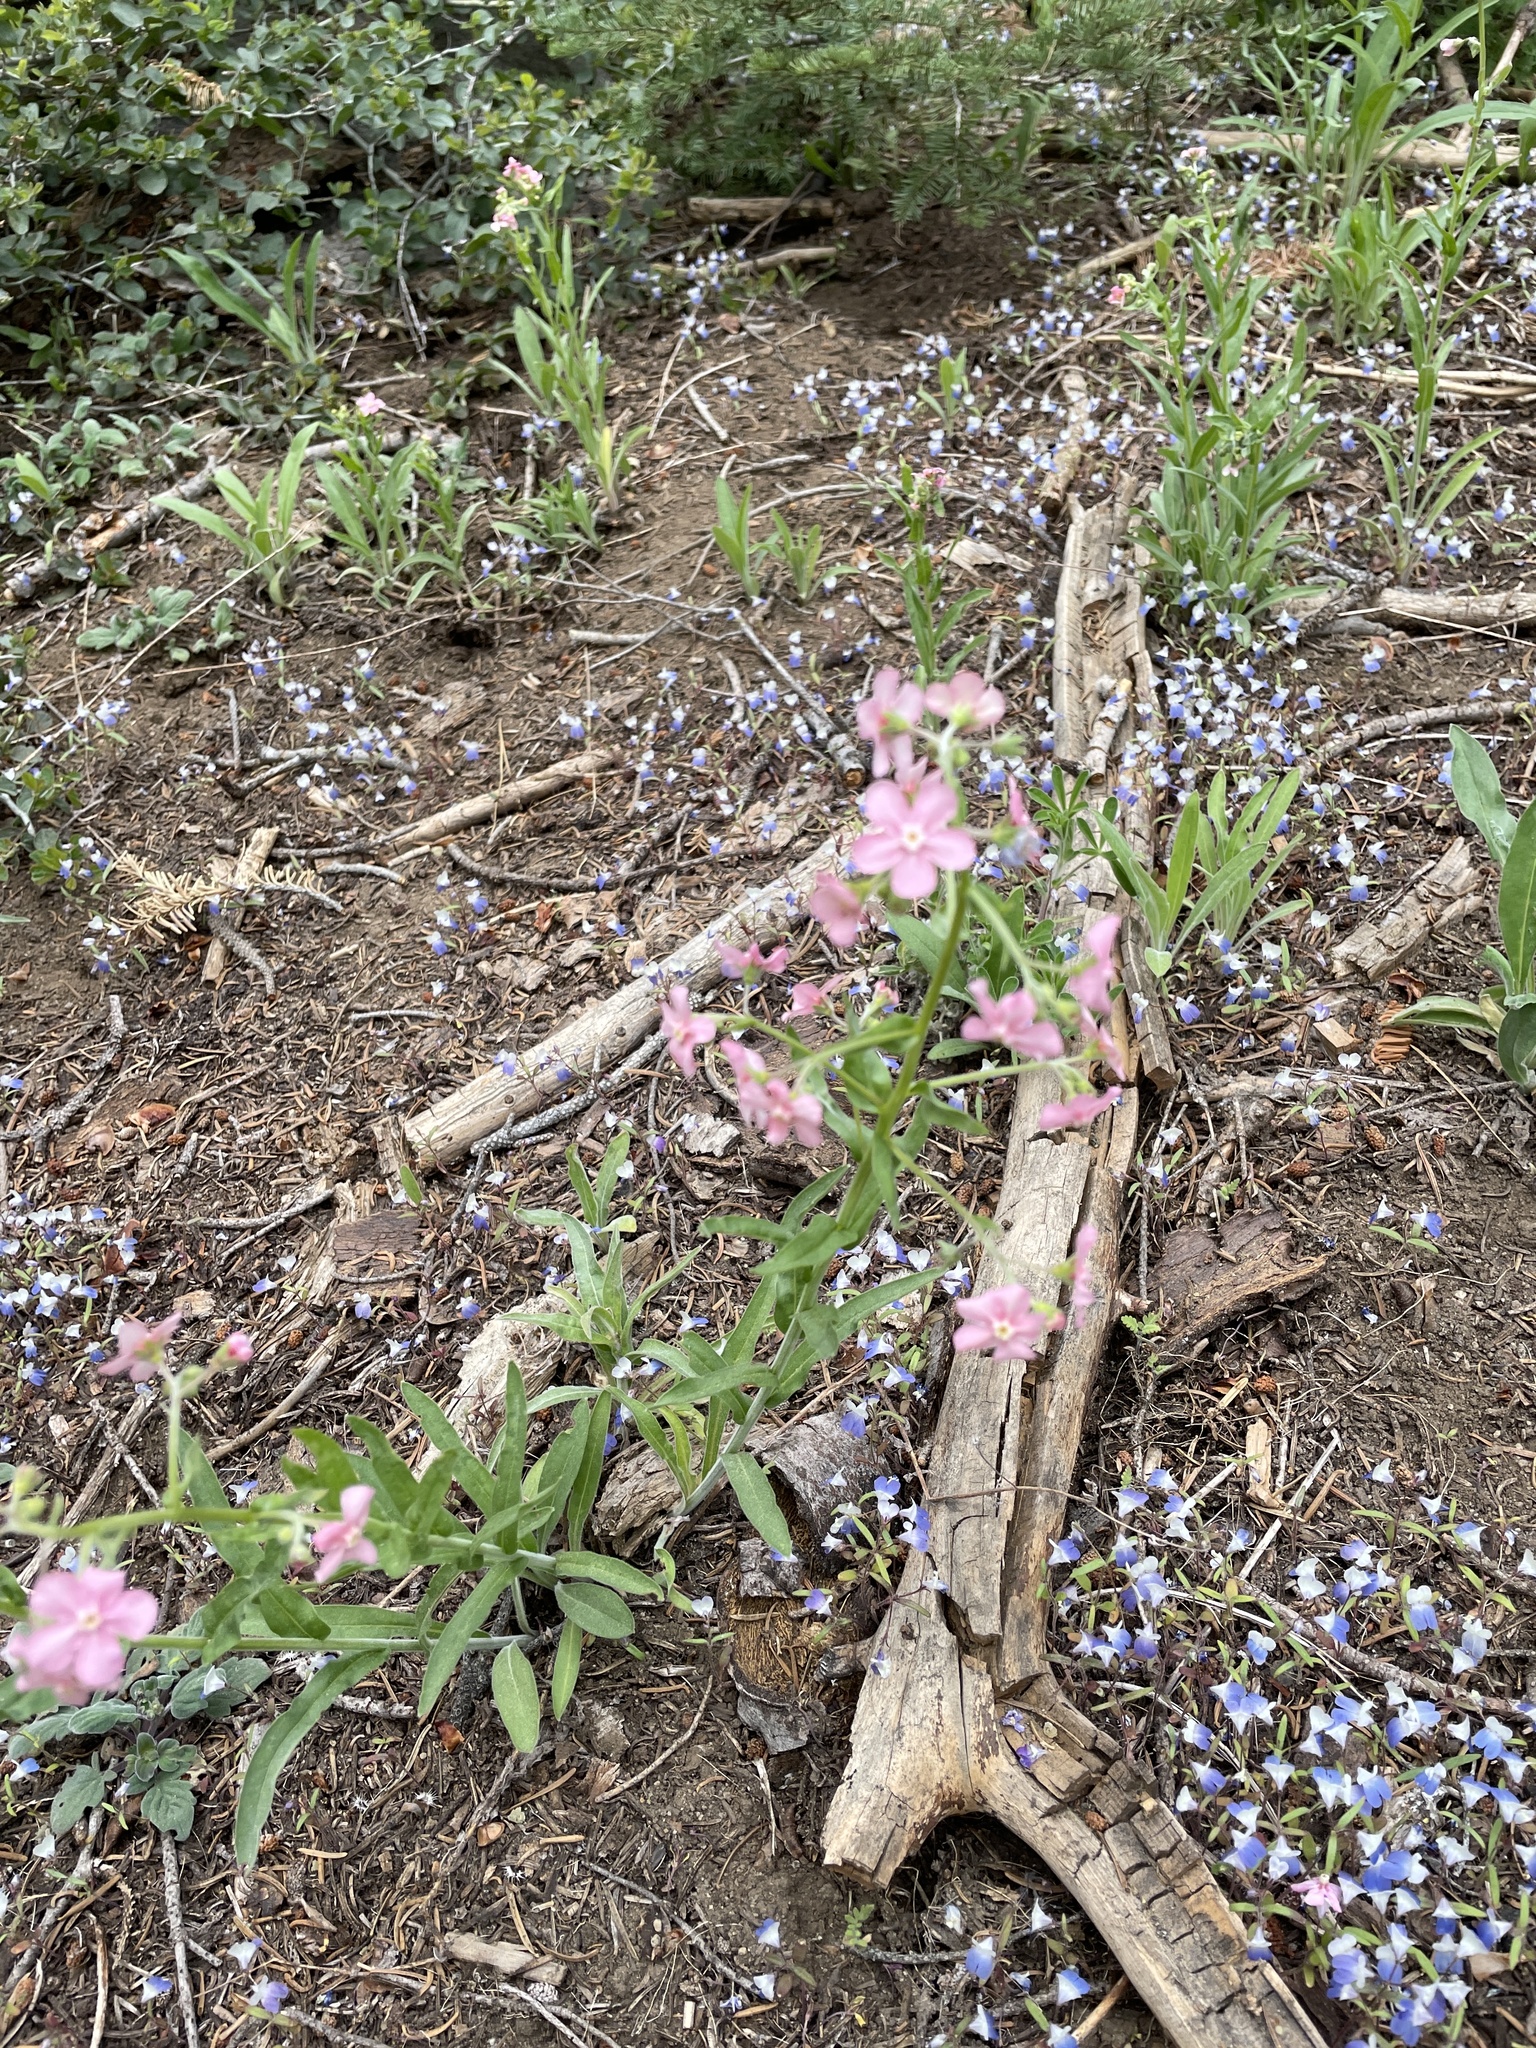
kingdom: Plantae
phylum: Tracheophyta
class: Magnoliopsida
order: Boraginales
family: Boraginaceae
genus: Hackelia
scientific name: Hackelia mundula
